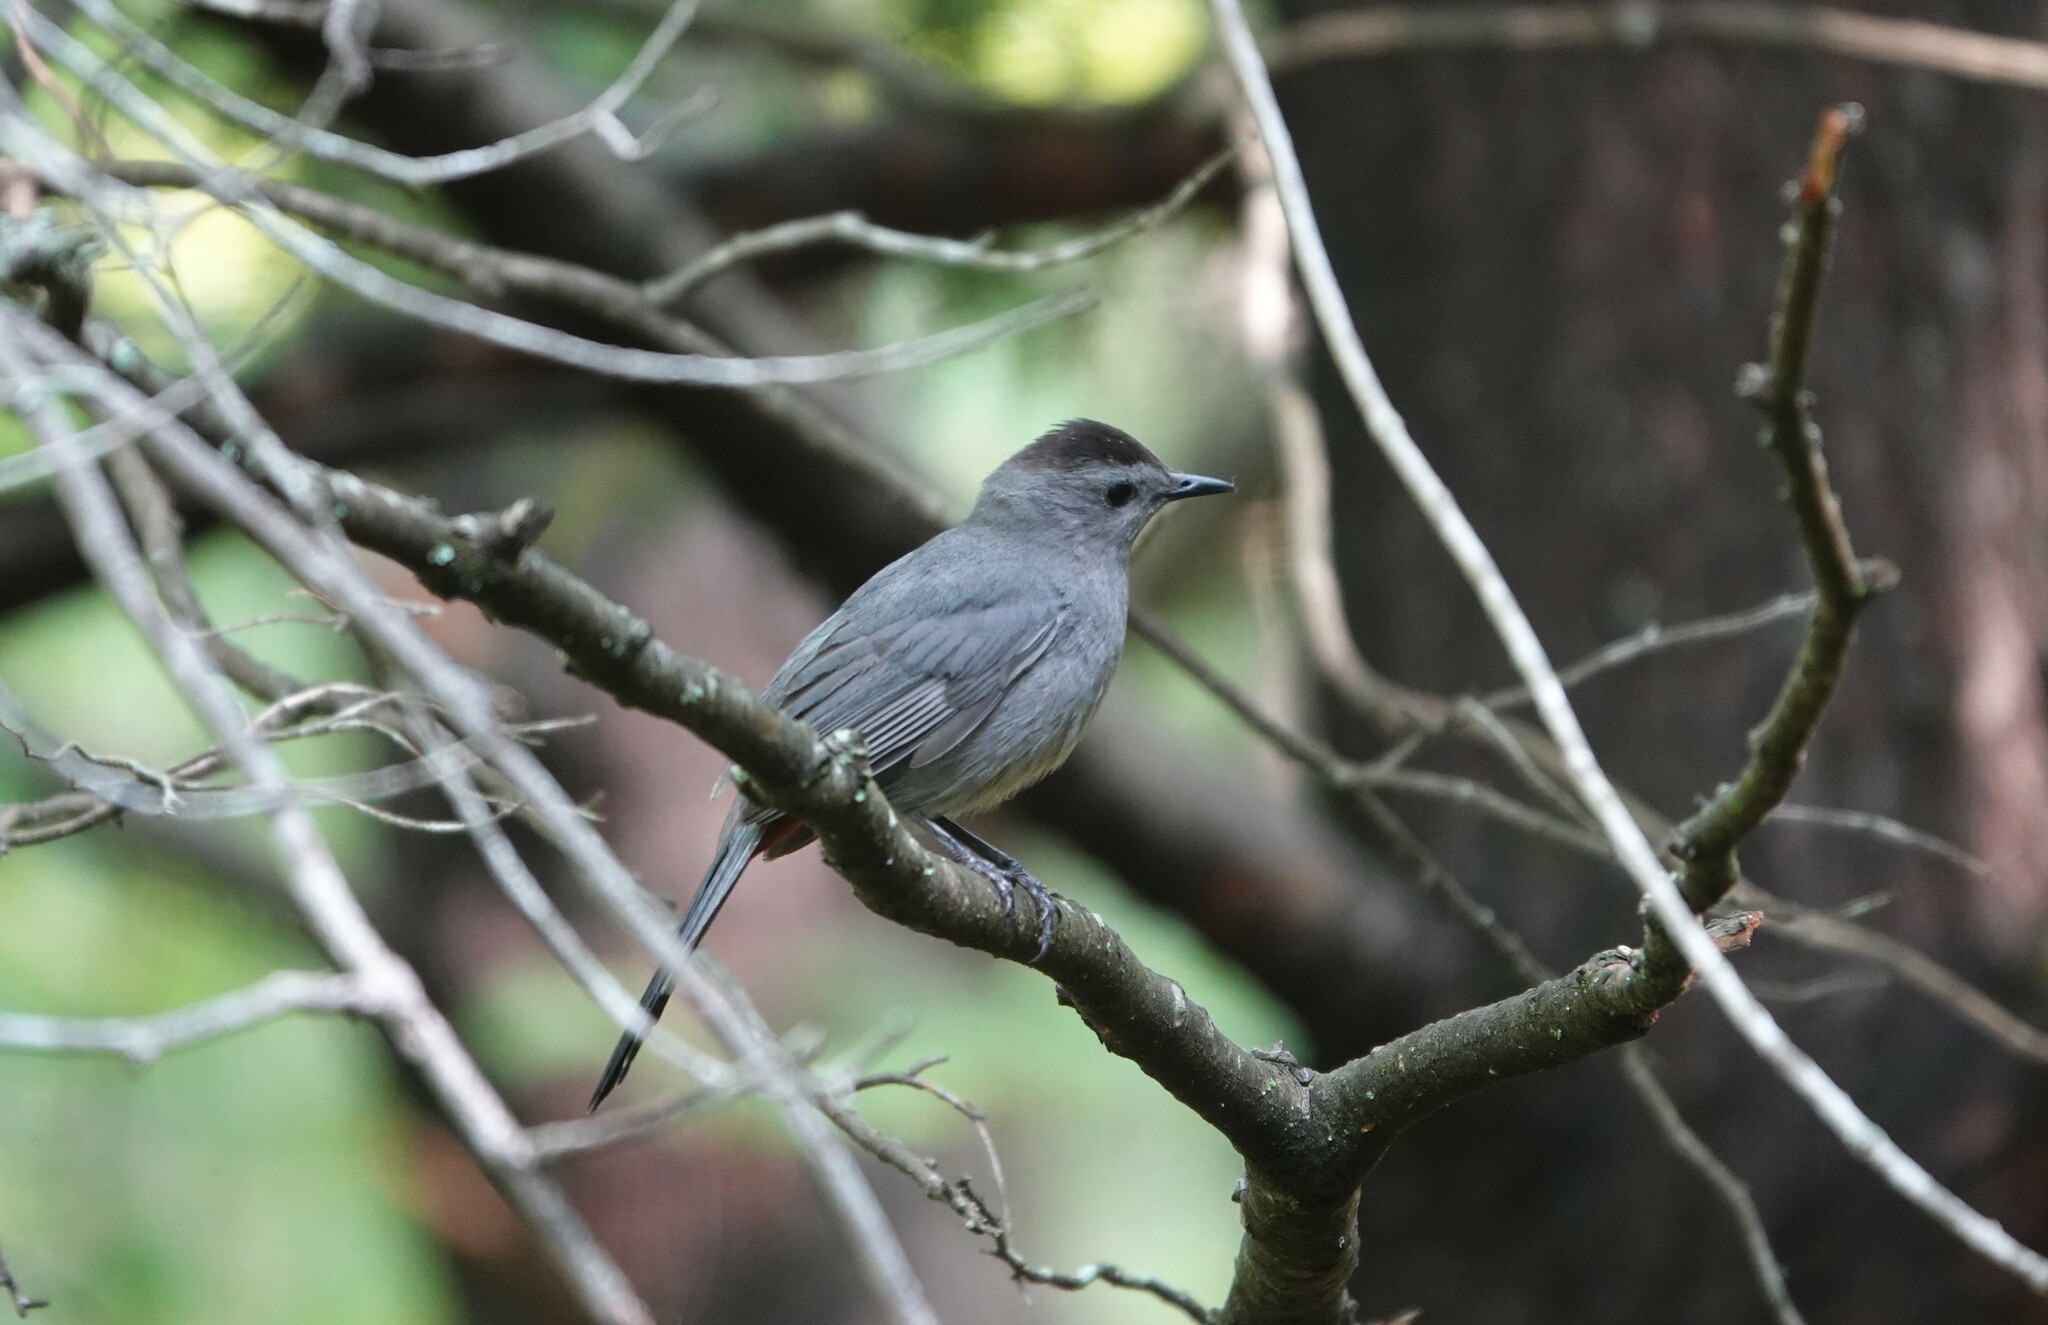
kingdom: Animalia
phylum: Chordata
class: Aves
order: Passeriformes
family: Mimidae
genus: Dumetella
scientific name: Dumetella carolinensis
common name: Gray catbird
